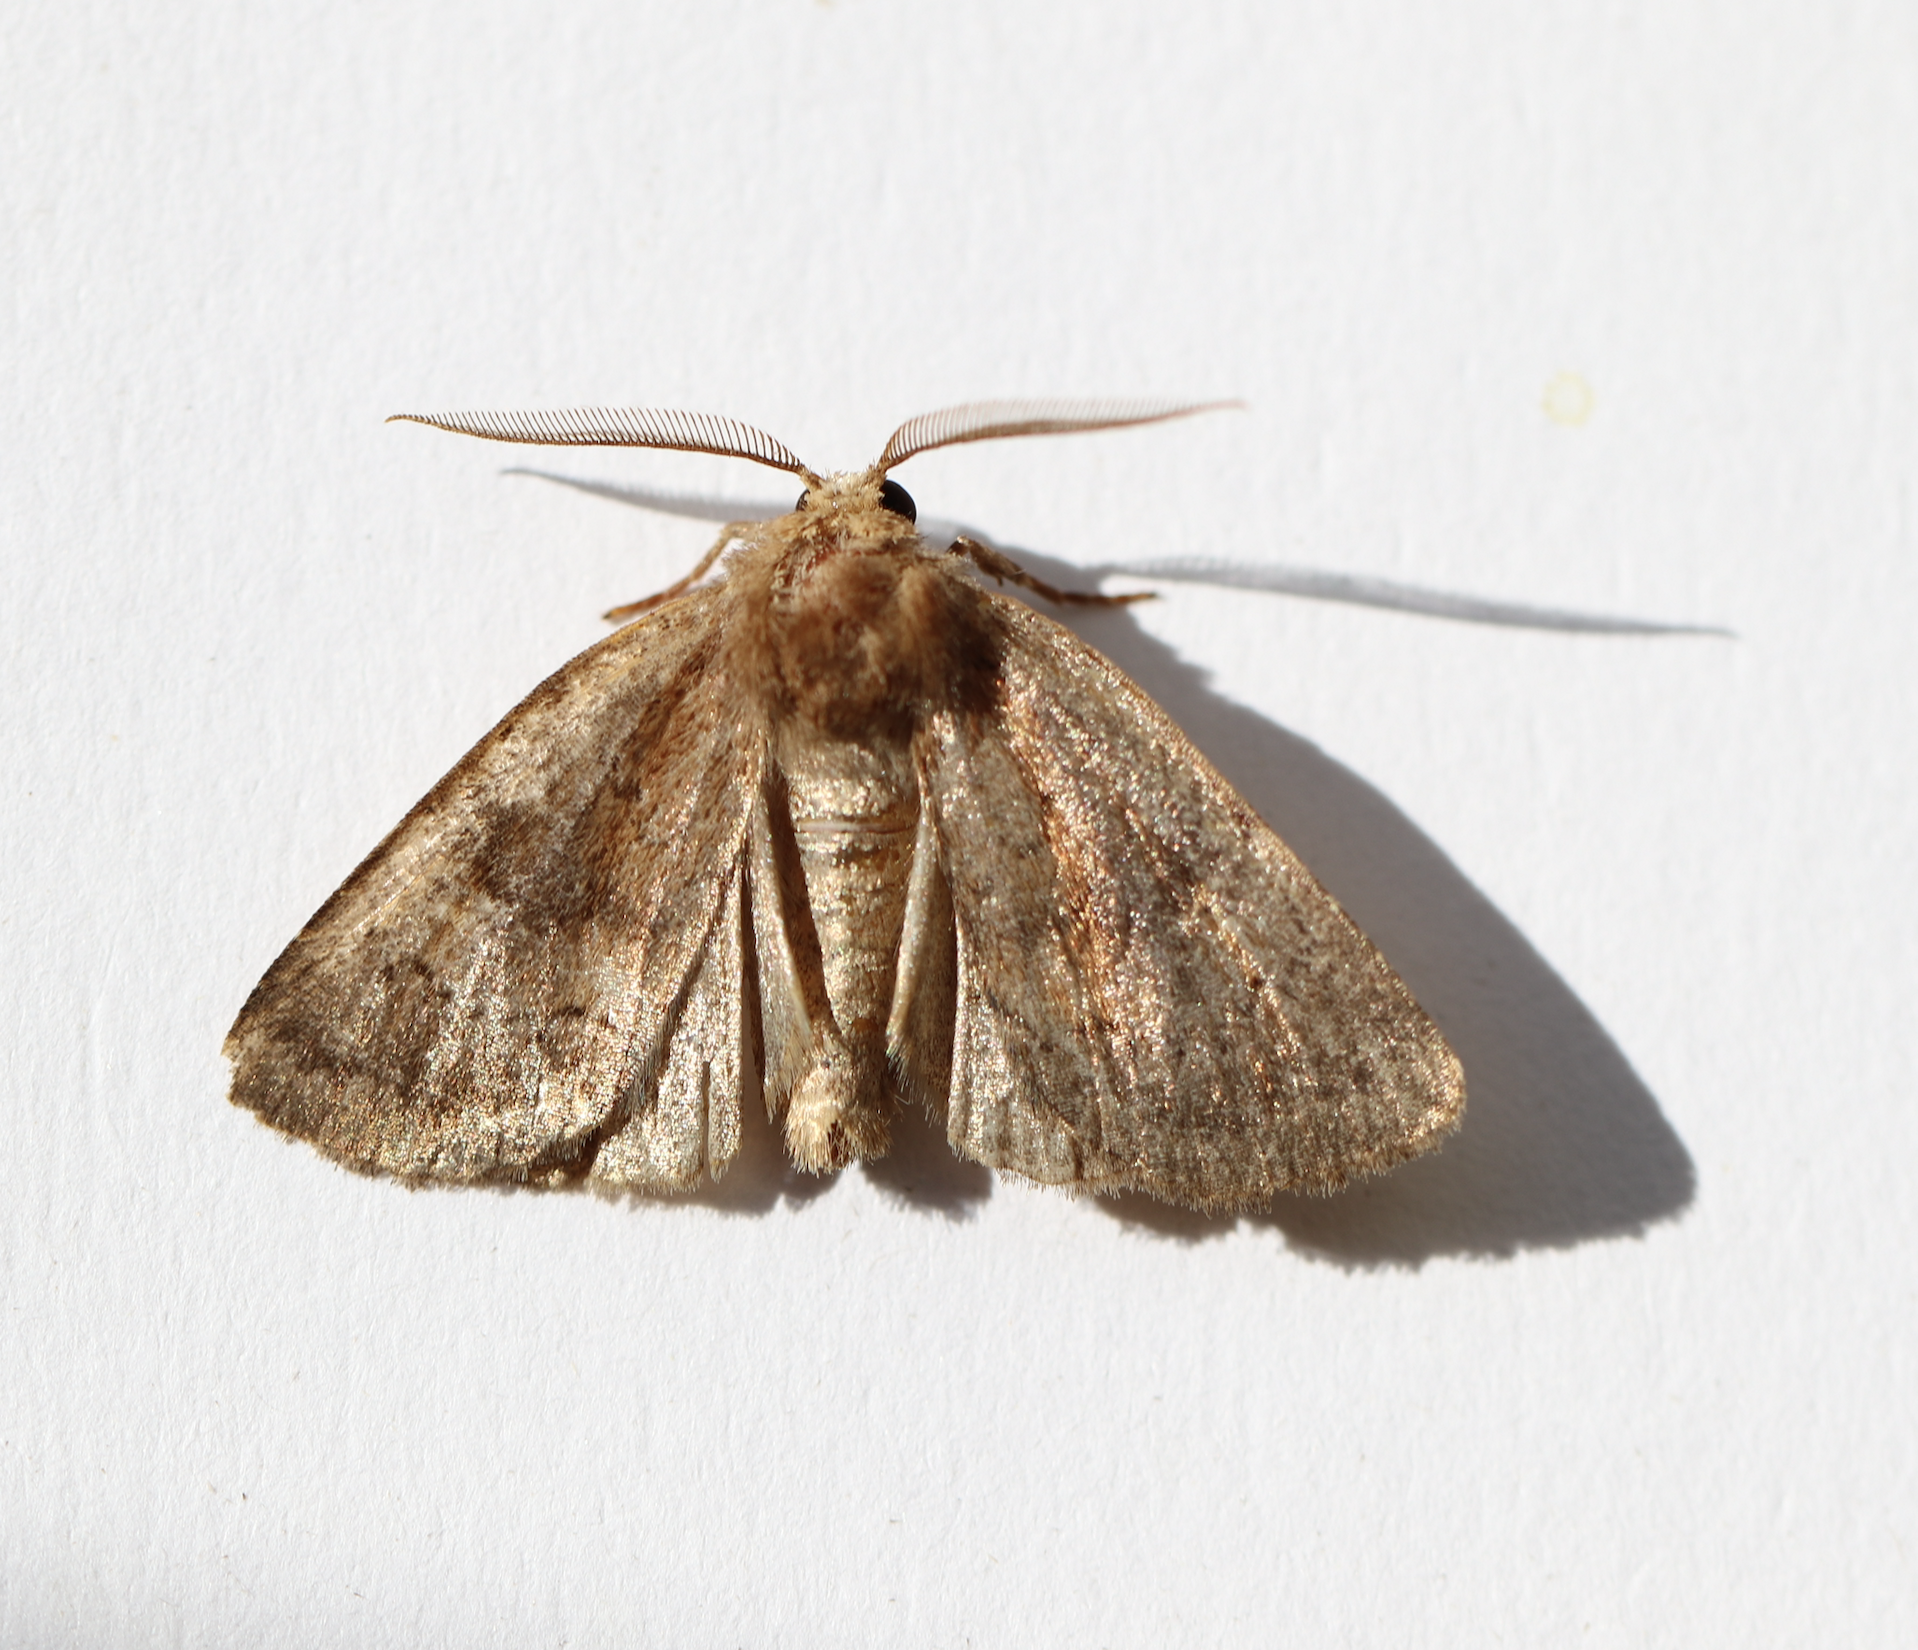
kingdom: Animalia
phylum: Arthropoda
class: Insecta
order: Lepidoptera
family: Noctuidae
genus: Charanyca
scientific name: Charanyca ferruginea
